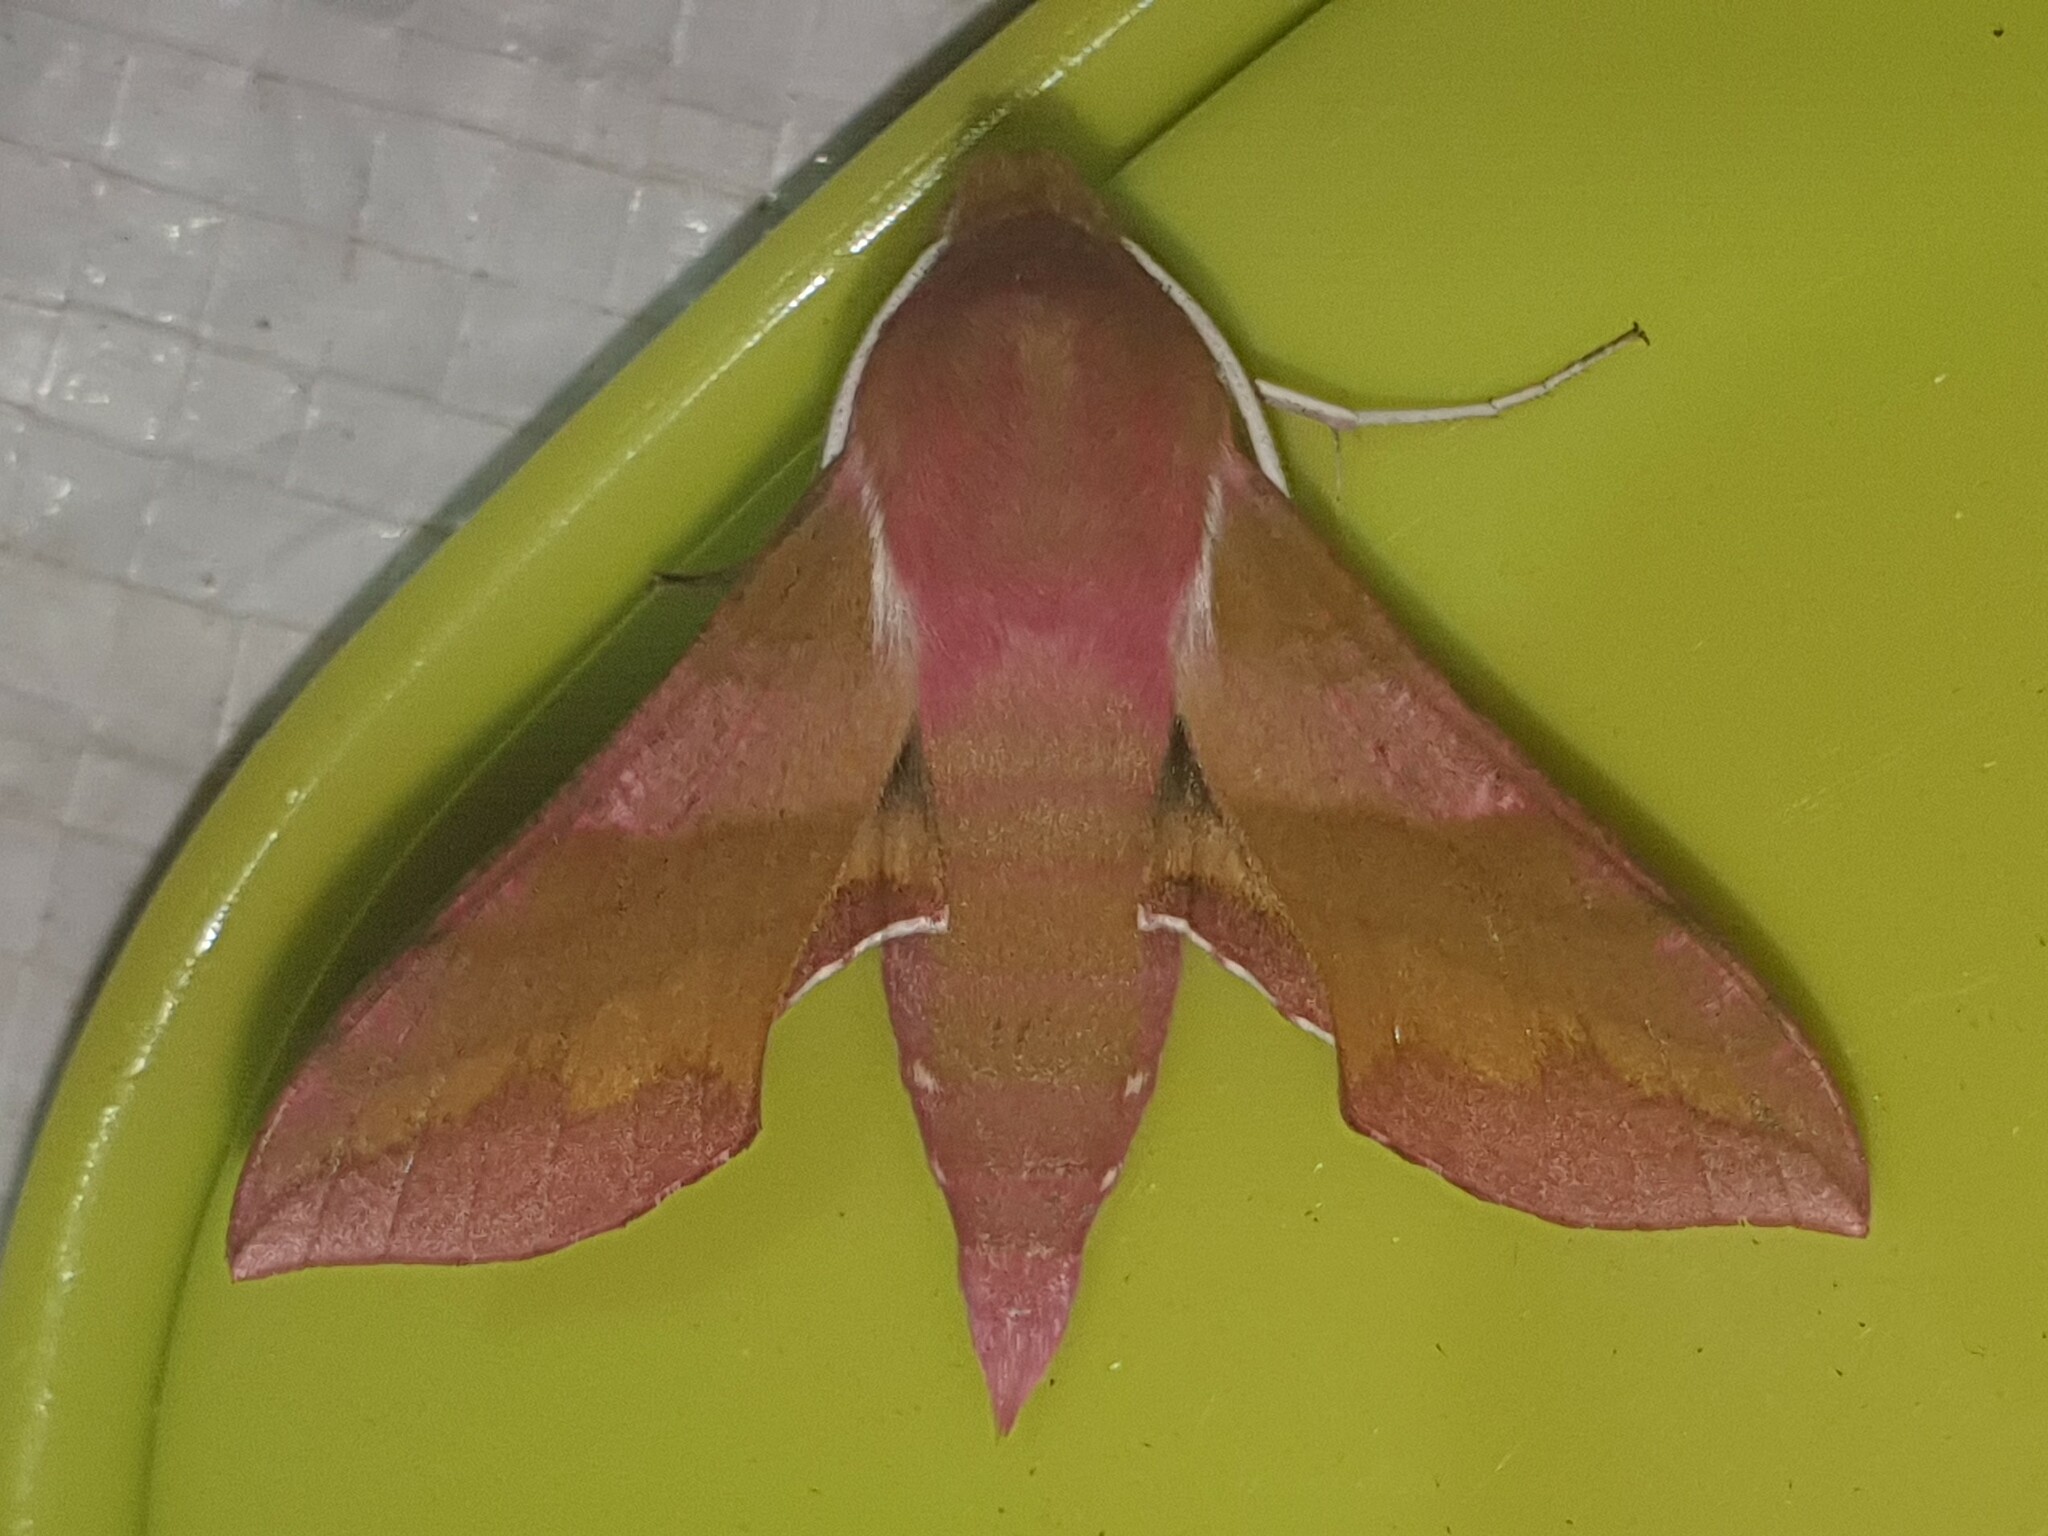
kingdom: Animalia
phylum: Arthropoda
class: Insecta
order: Lepidoptera
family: Sphingidae
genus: Deilephila
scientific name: Deilephila porcellus
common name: Small elephant hawk-moth
